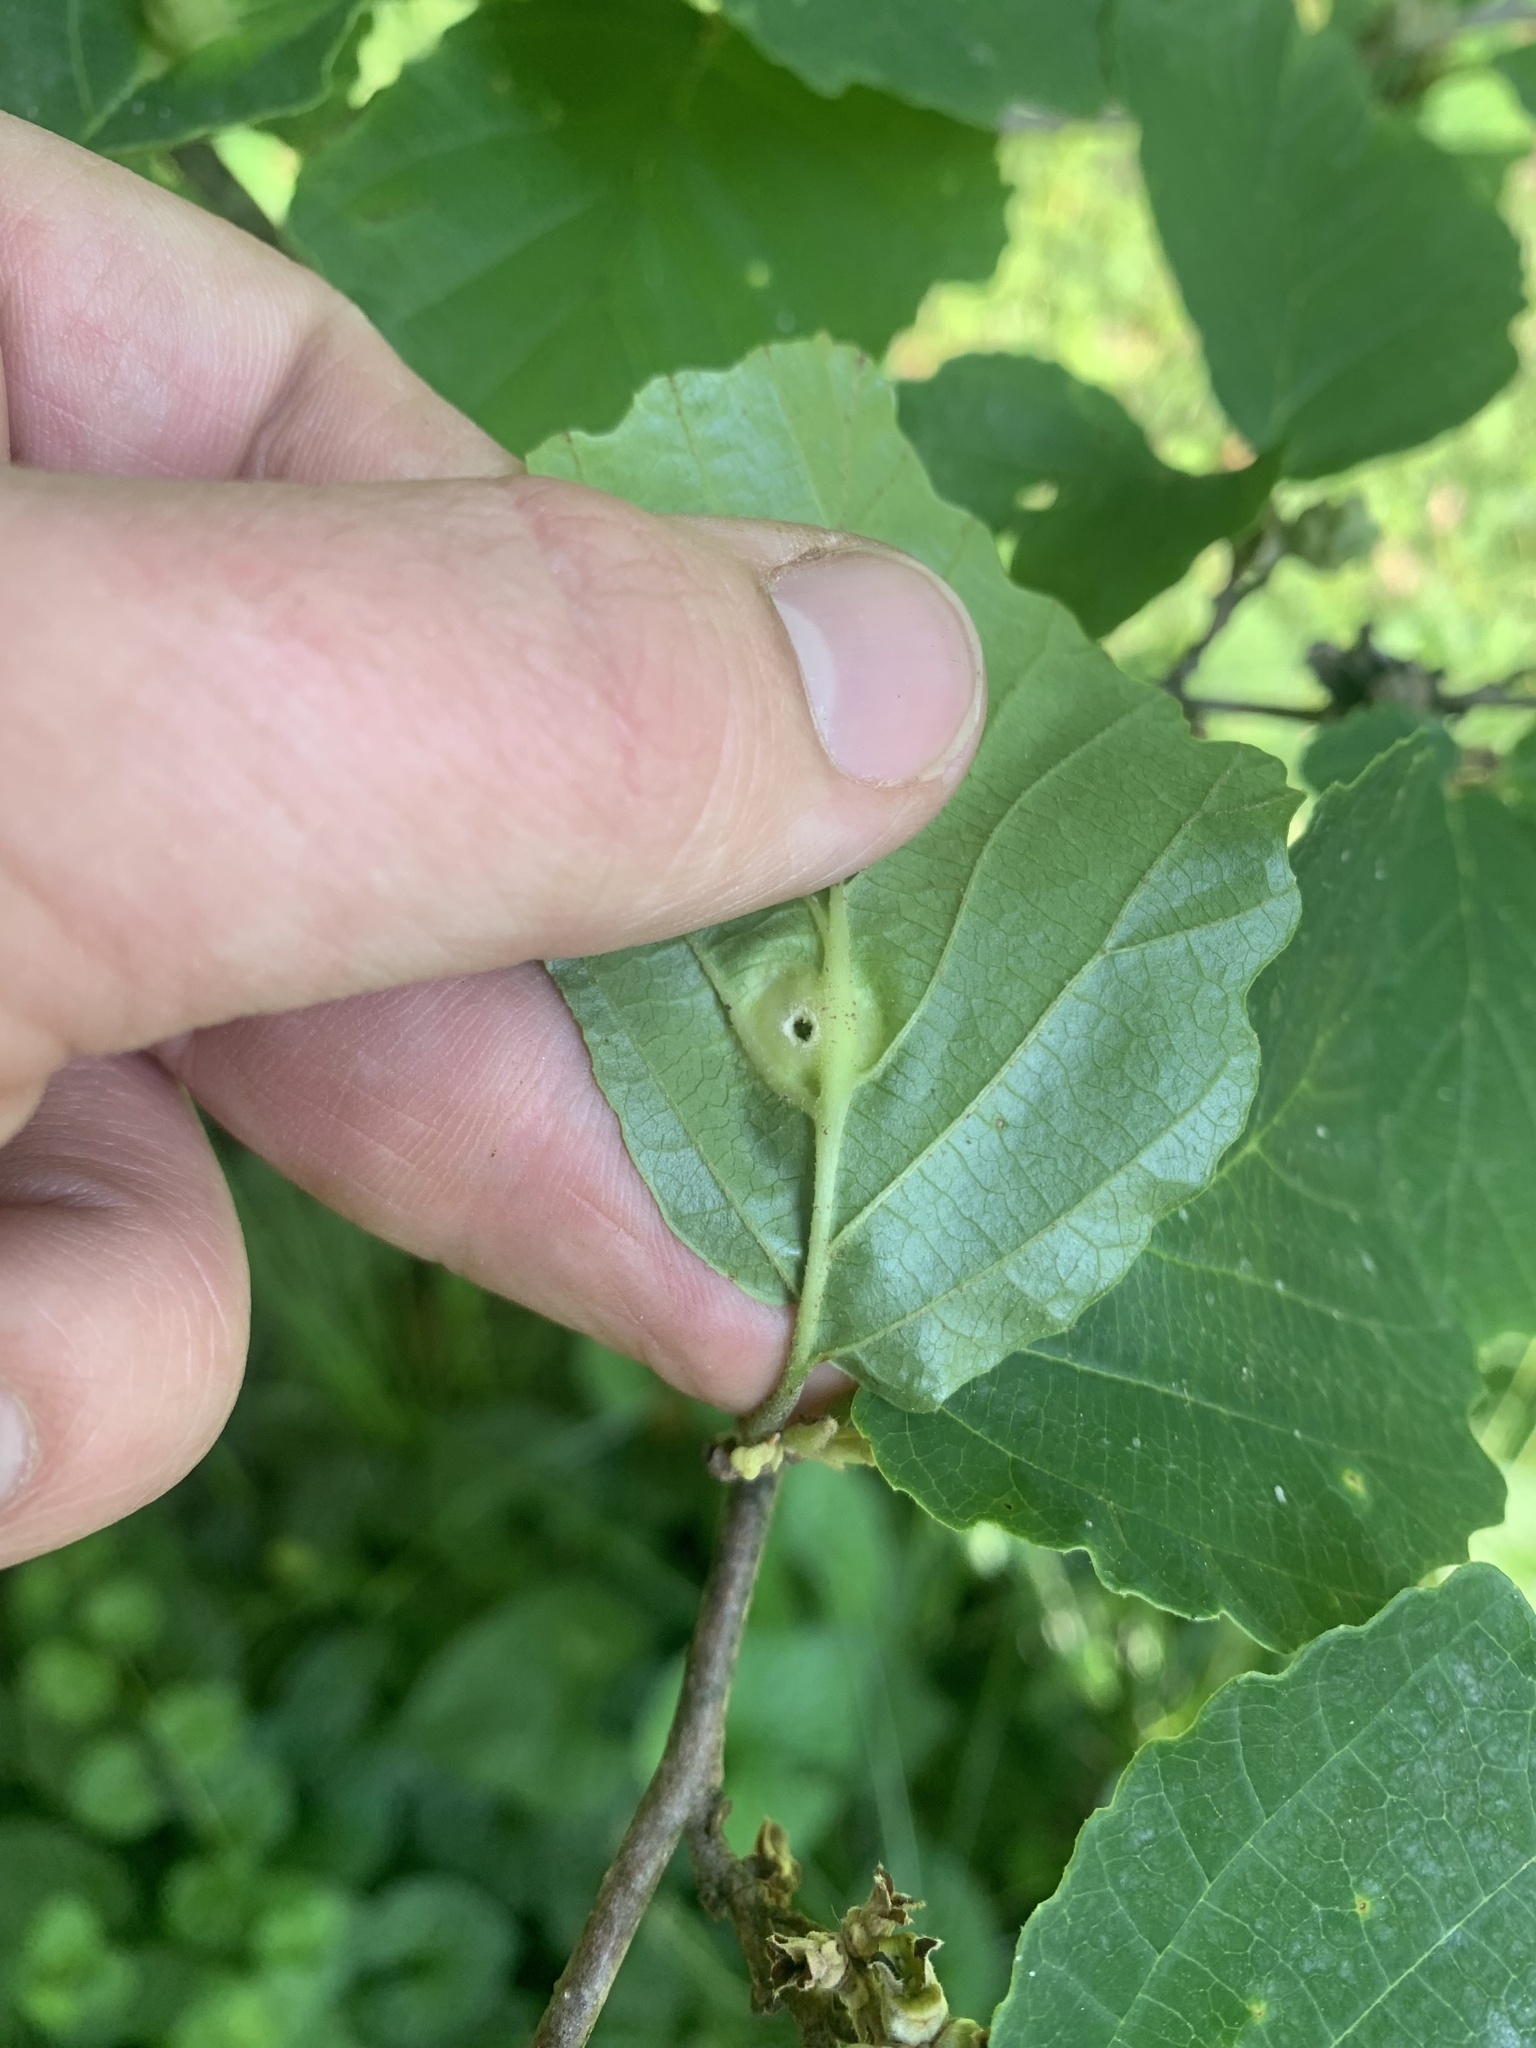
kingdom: Animalia
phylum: Arthropoda
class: Insecta
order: Hemiptera
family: Aphididae
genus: Hormaphis
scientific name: Hormaphis hamamelidis
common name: Witch-hazel cone gall aphid
